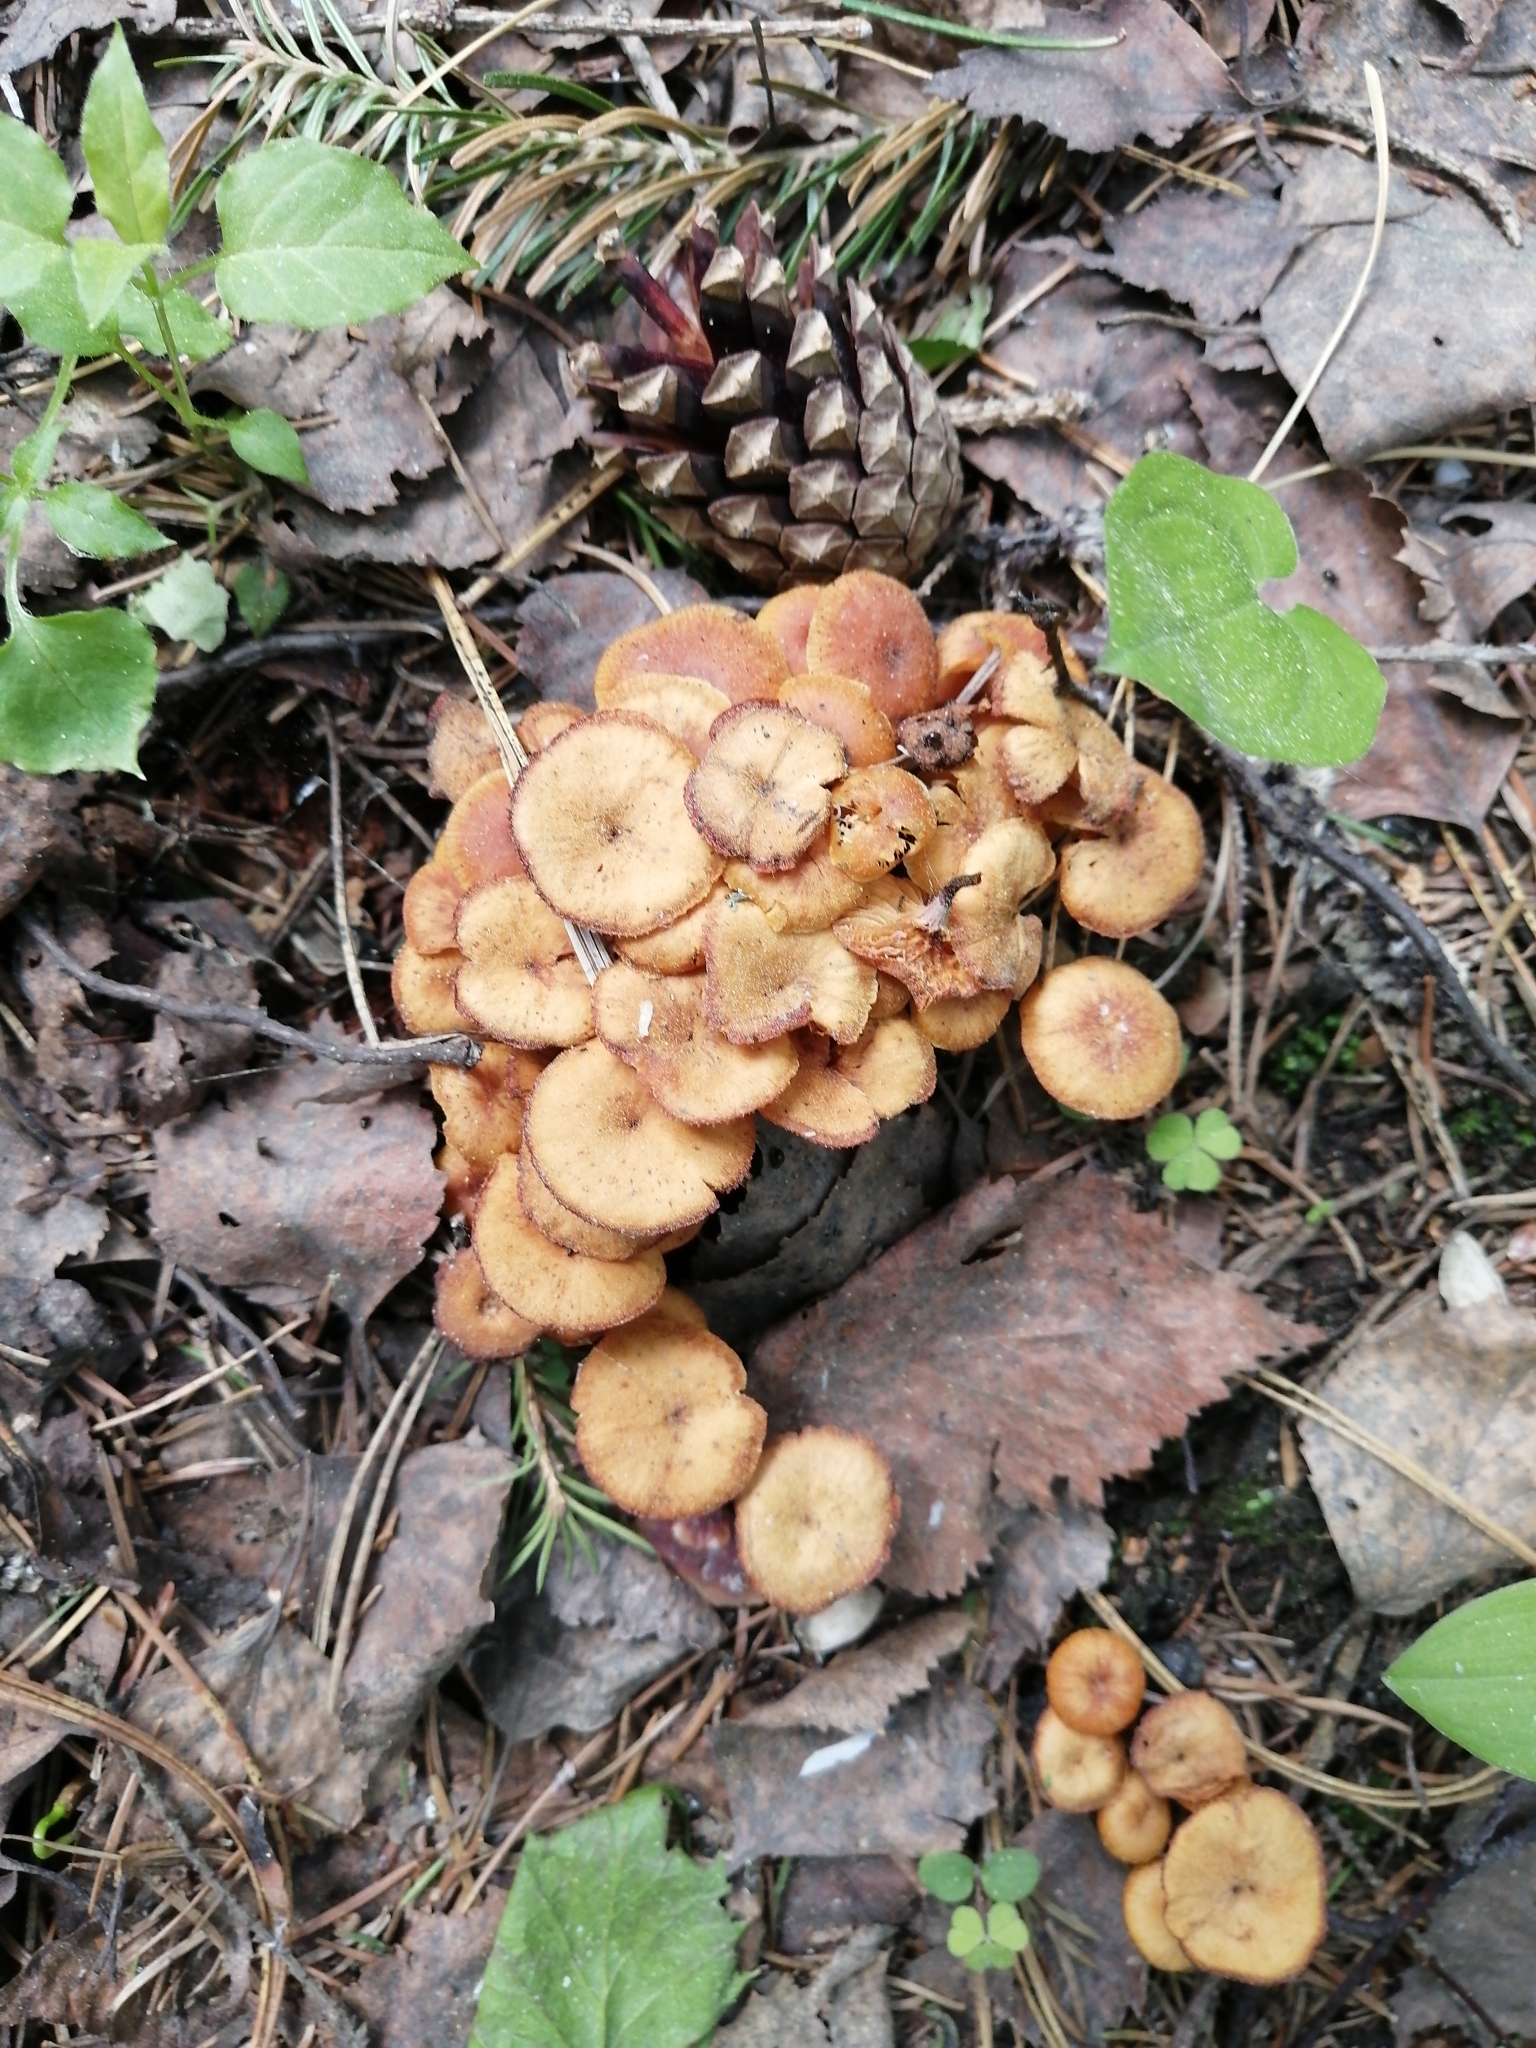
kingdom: Fungi
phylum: Basidiomycota
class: Agaricomycetes
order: Agaricales
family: Mycenaceae
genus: Xeromphalina
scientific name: Xeromphalina campanella
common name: Pinewood gingertail
